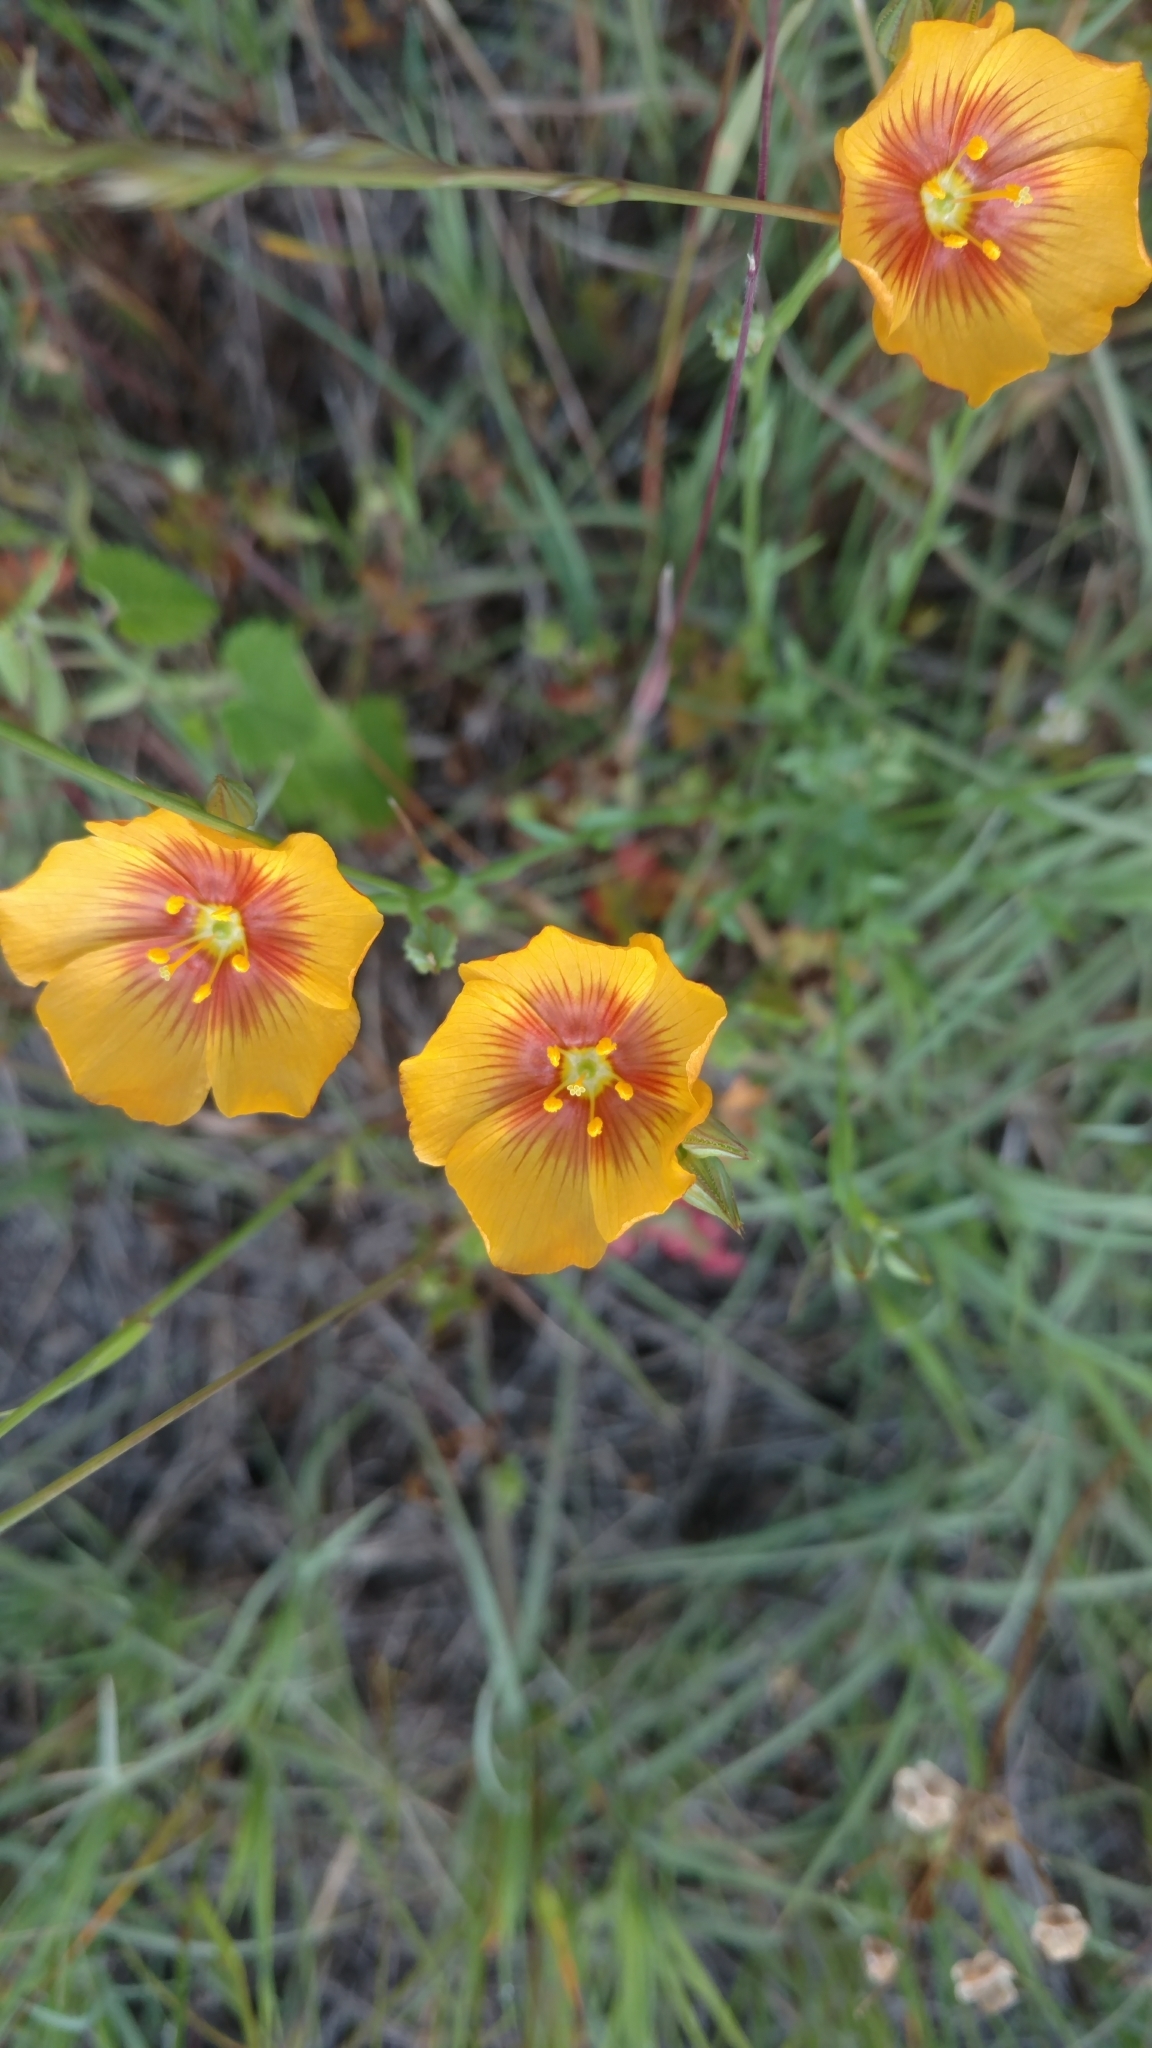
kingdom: Plantae
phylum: Tracheophyta
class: Magnoliopsida
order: Malpighiales
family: Linaceae
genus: Linum
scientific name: Linum berlandieri
